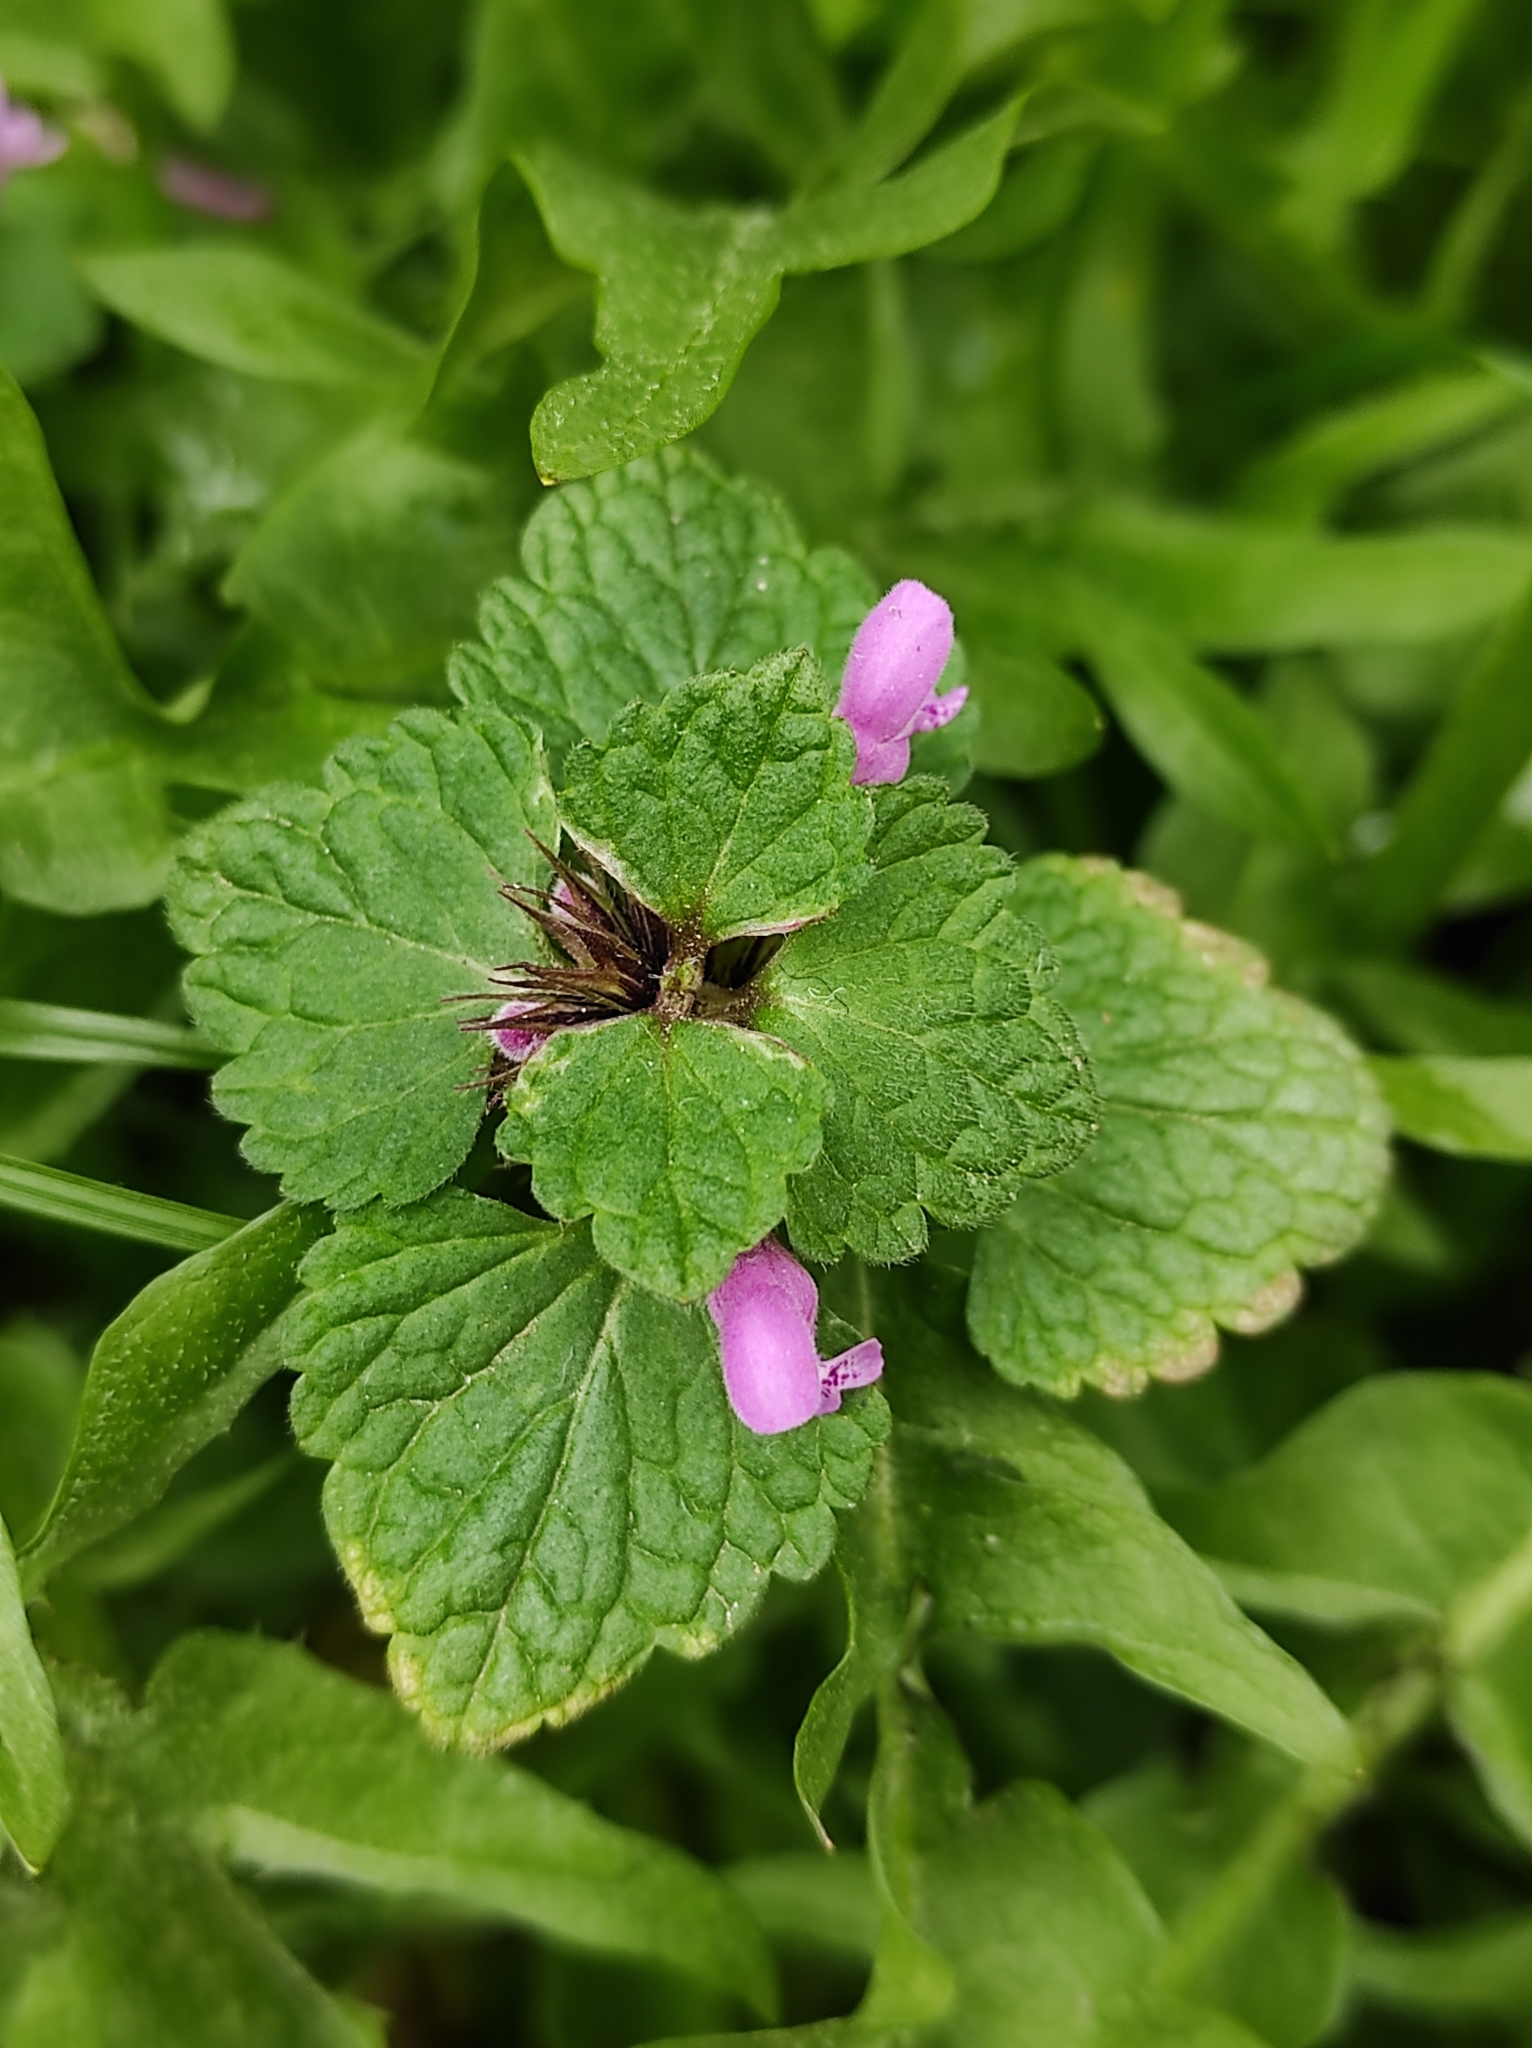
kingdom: Plantae
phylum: Tracheophyta
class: Magnoliopsida
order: Lamiales
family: Lamiaceae
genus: Lamium
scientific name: Lamium purpureum
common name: Red dead-nettle
